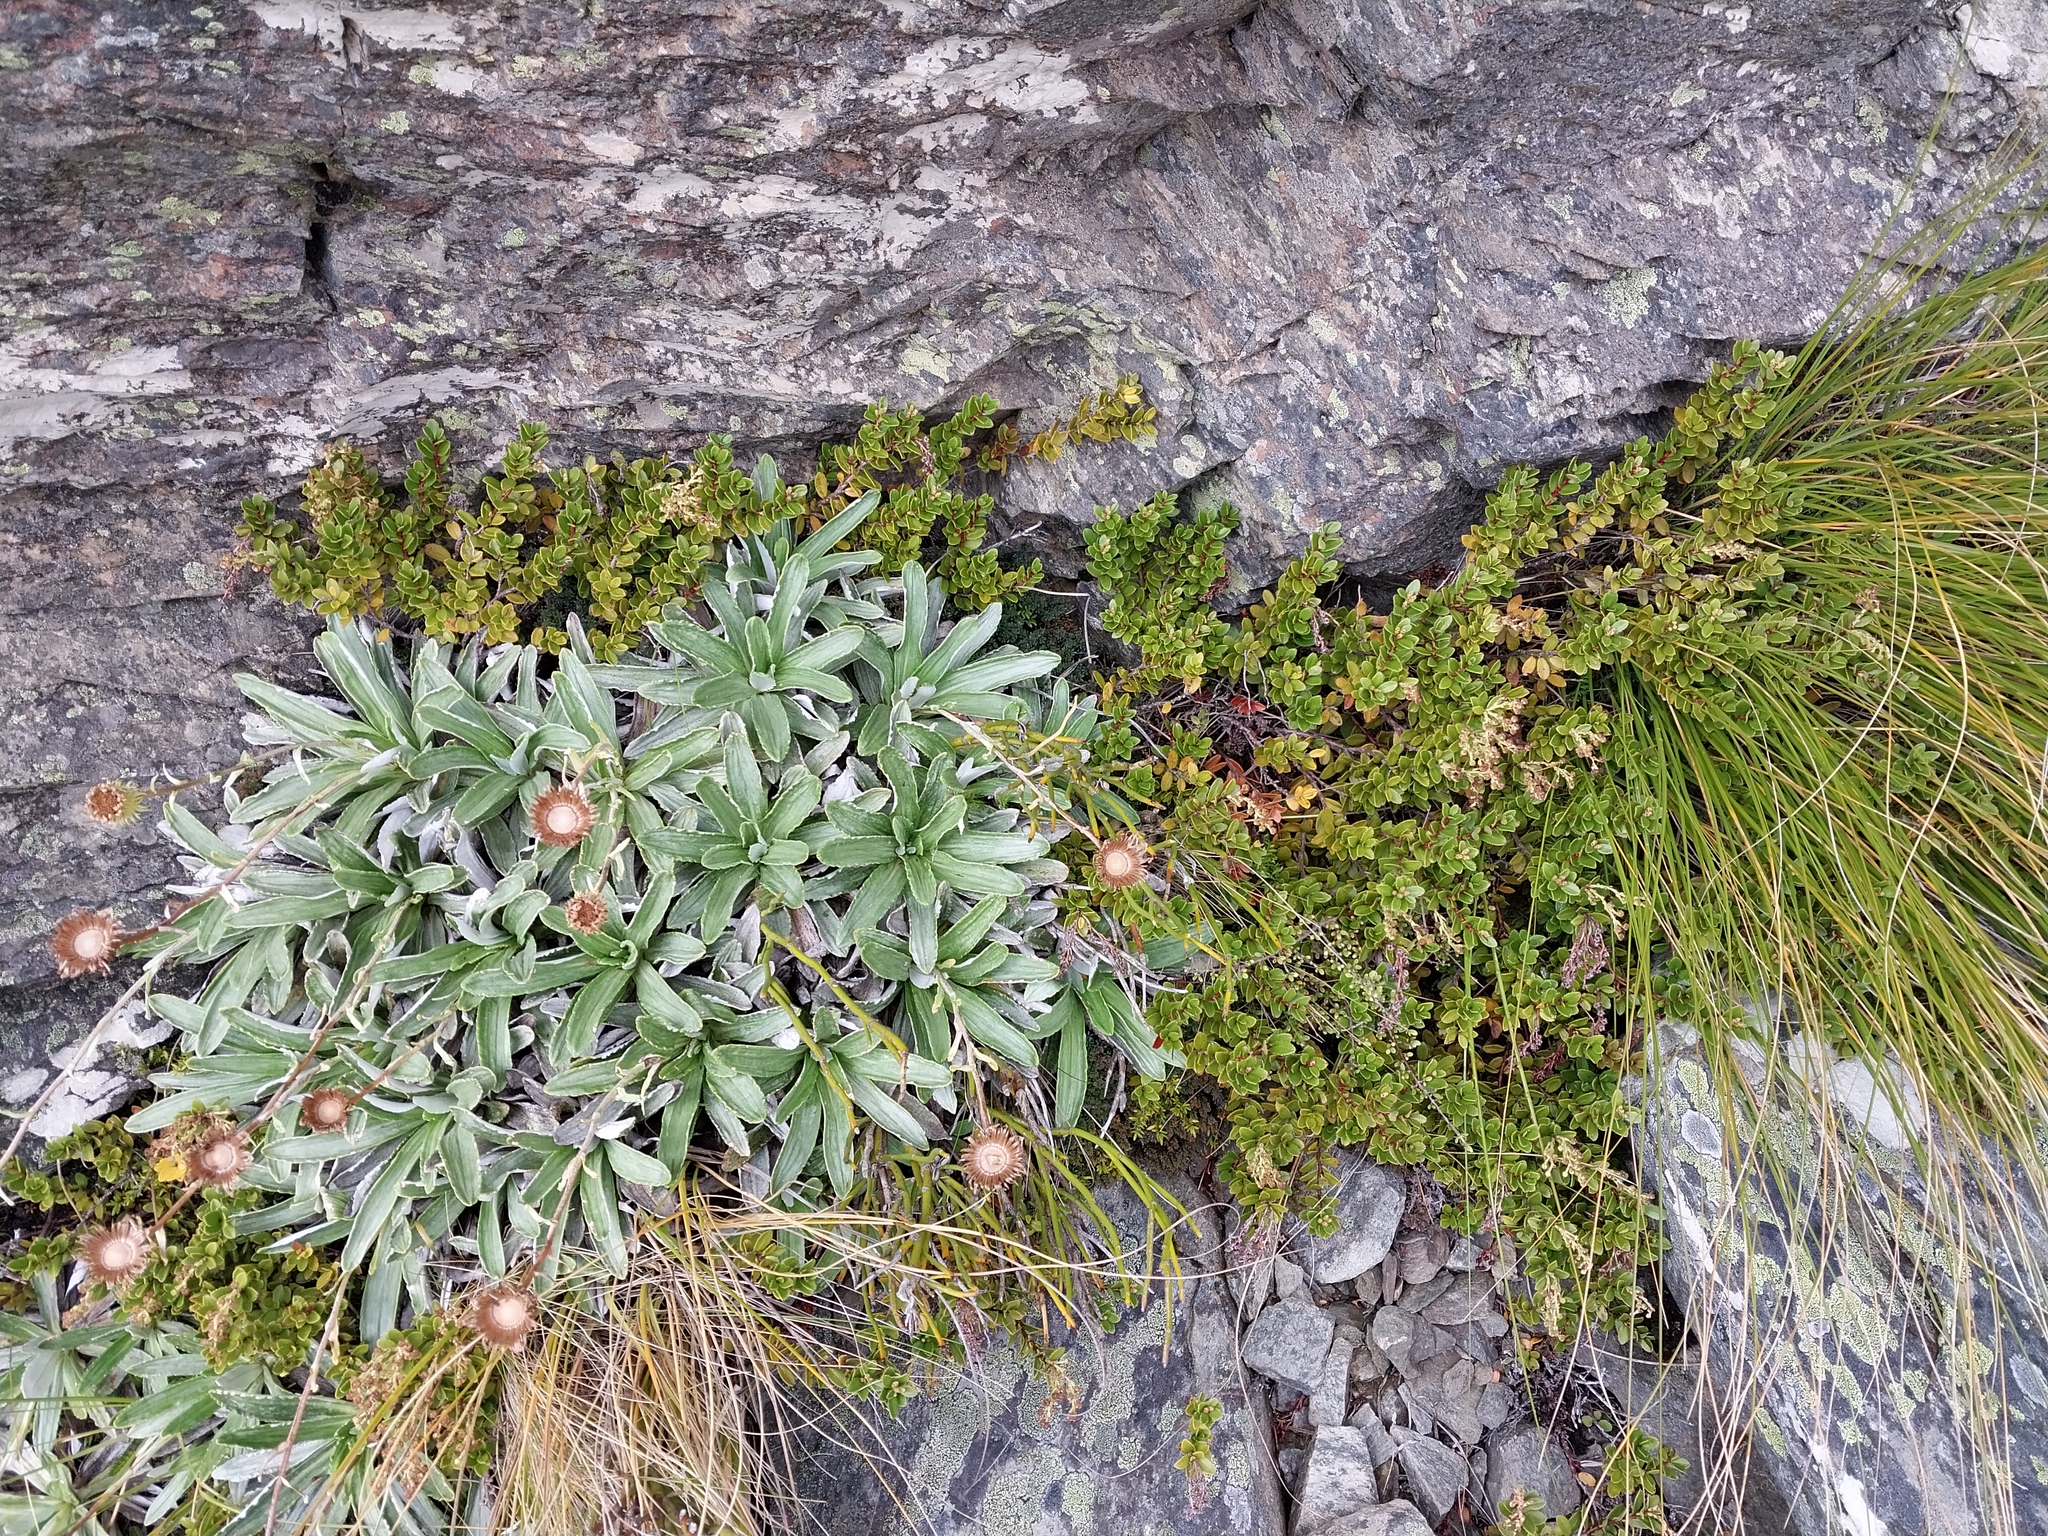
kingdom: Plantae
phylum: Tracheophyta
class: Magnoliopsida
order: Asterales
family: Asteraceae
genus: Celmisia
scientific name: Celmisia densiflora
